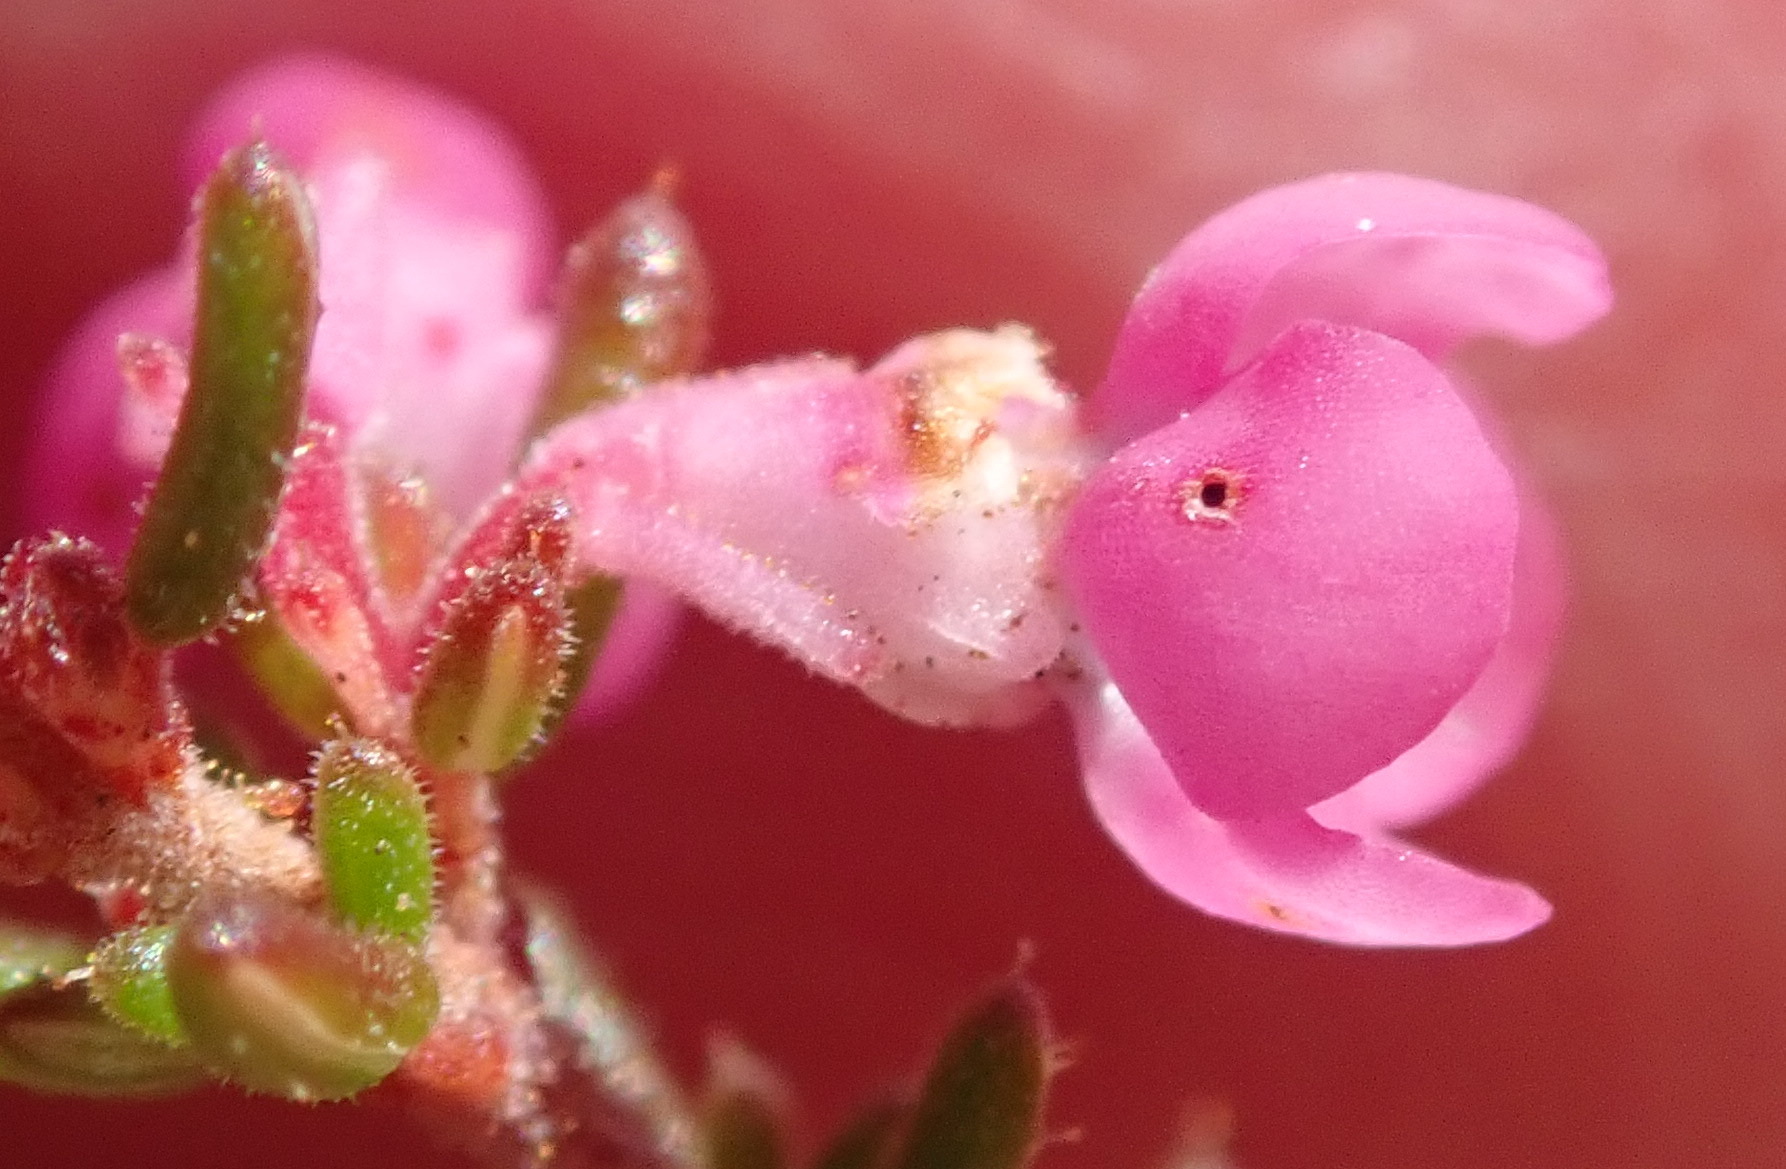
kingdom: Plantae
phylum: Tracheophyta
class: Magnoliopsida
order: Ericales
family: Ericaceae
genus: Erica
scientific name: Erica melanthera
